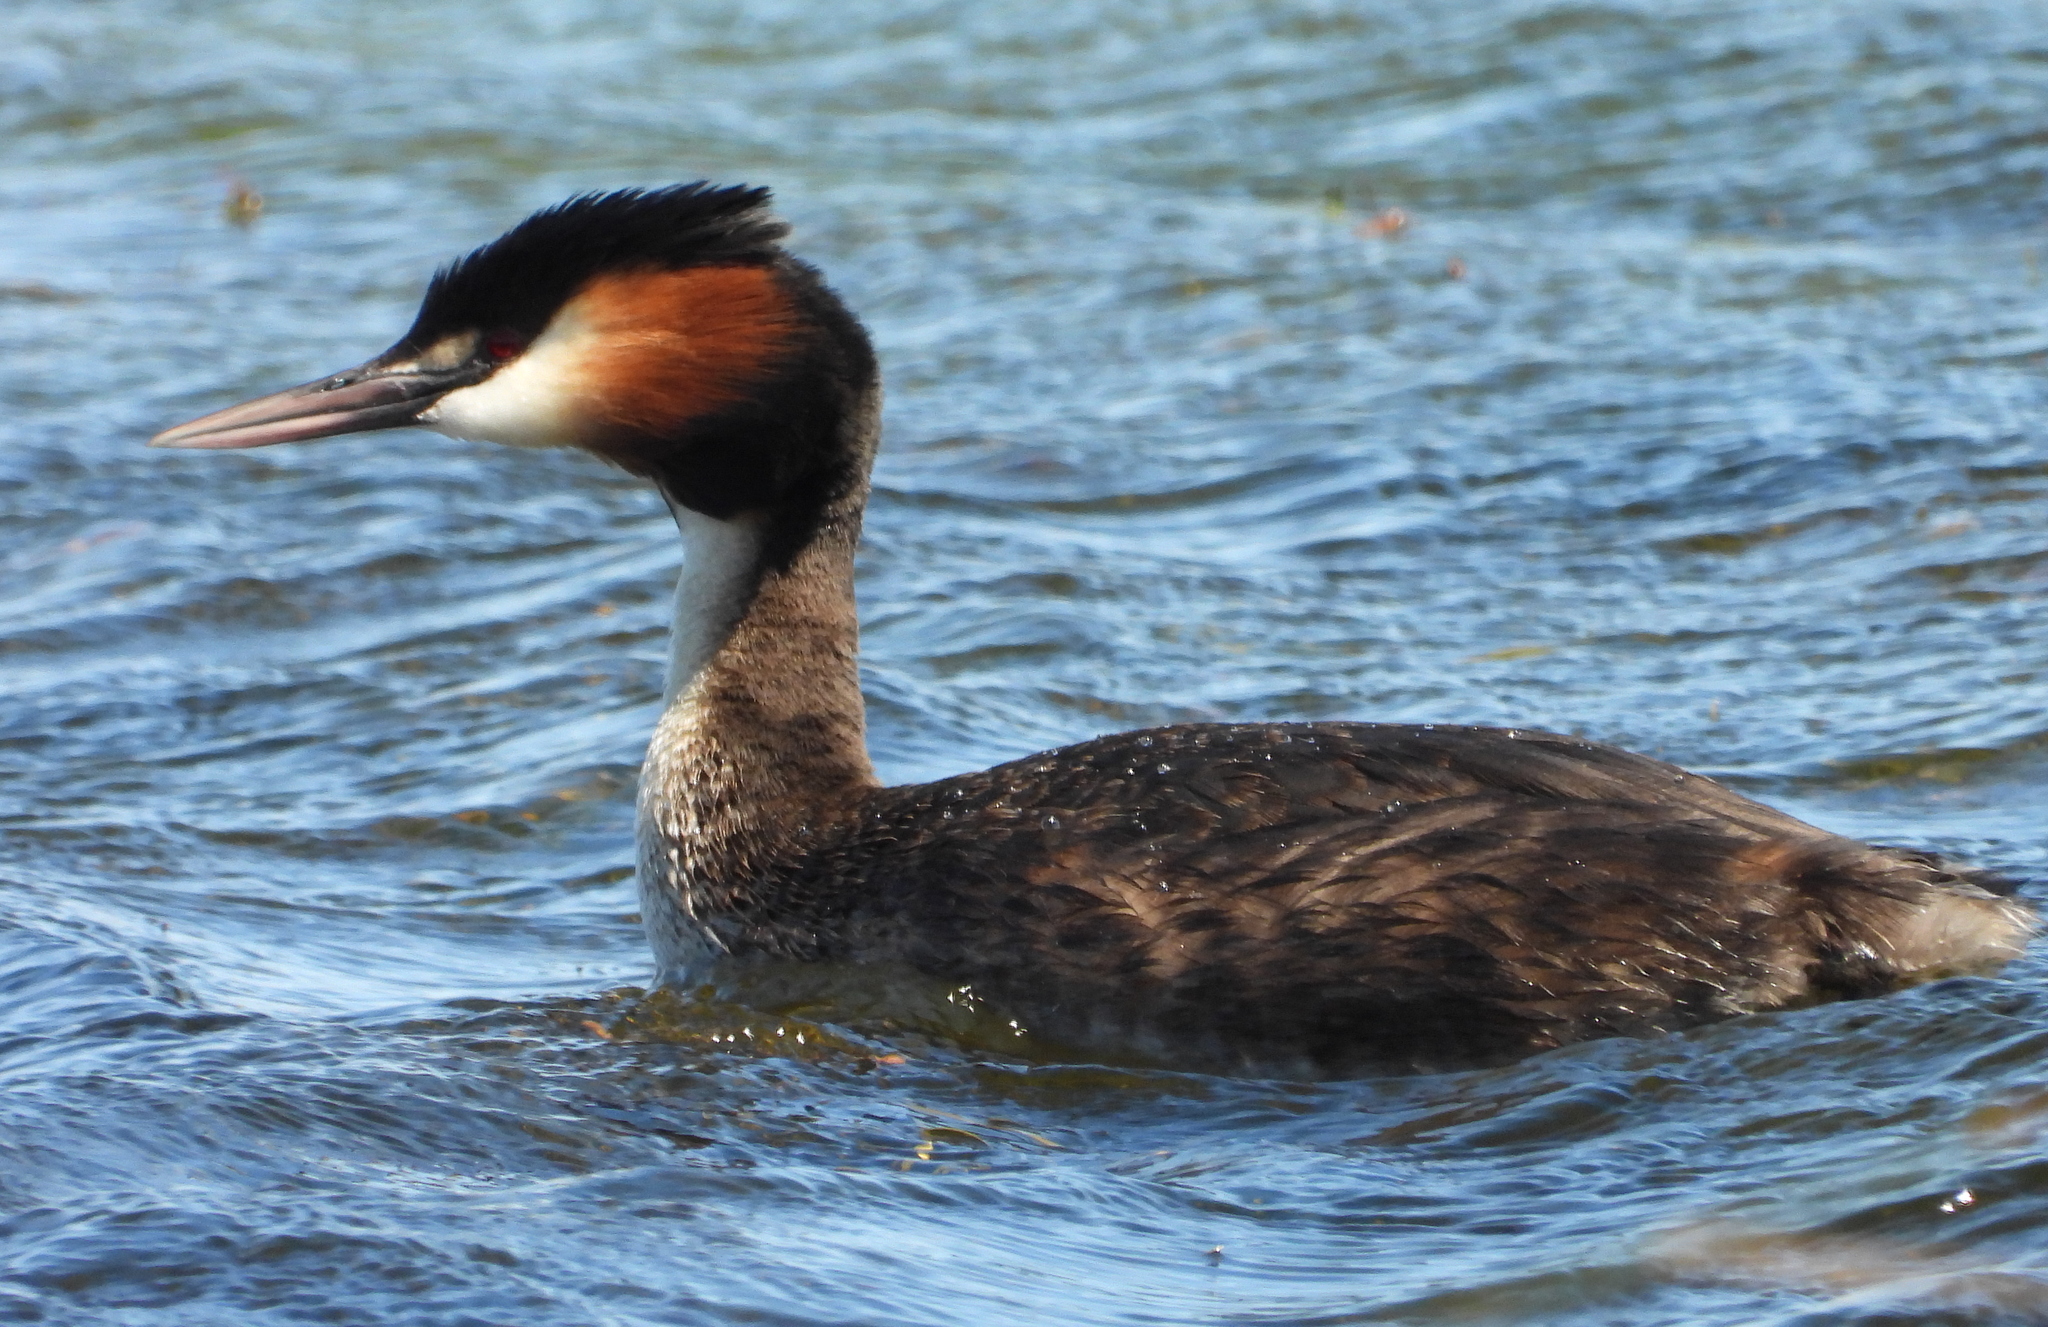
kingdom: Animalia
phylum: Chordata
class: Aves
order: Podicipediformes
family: Podicipedidae
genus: Podiceps
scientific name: Podiceps cristatus
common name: Great crested grebe
